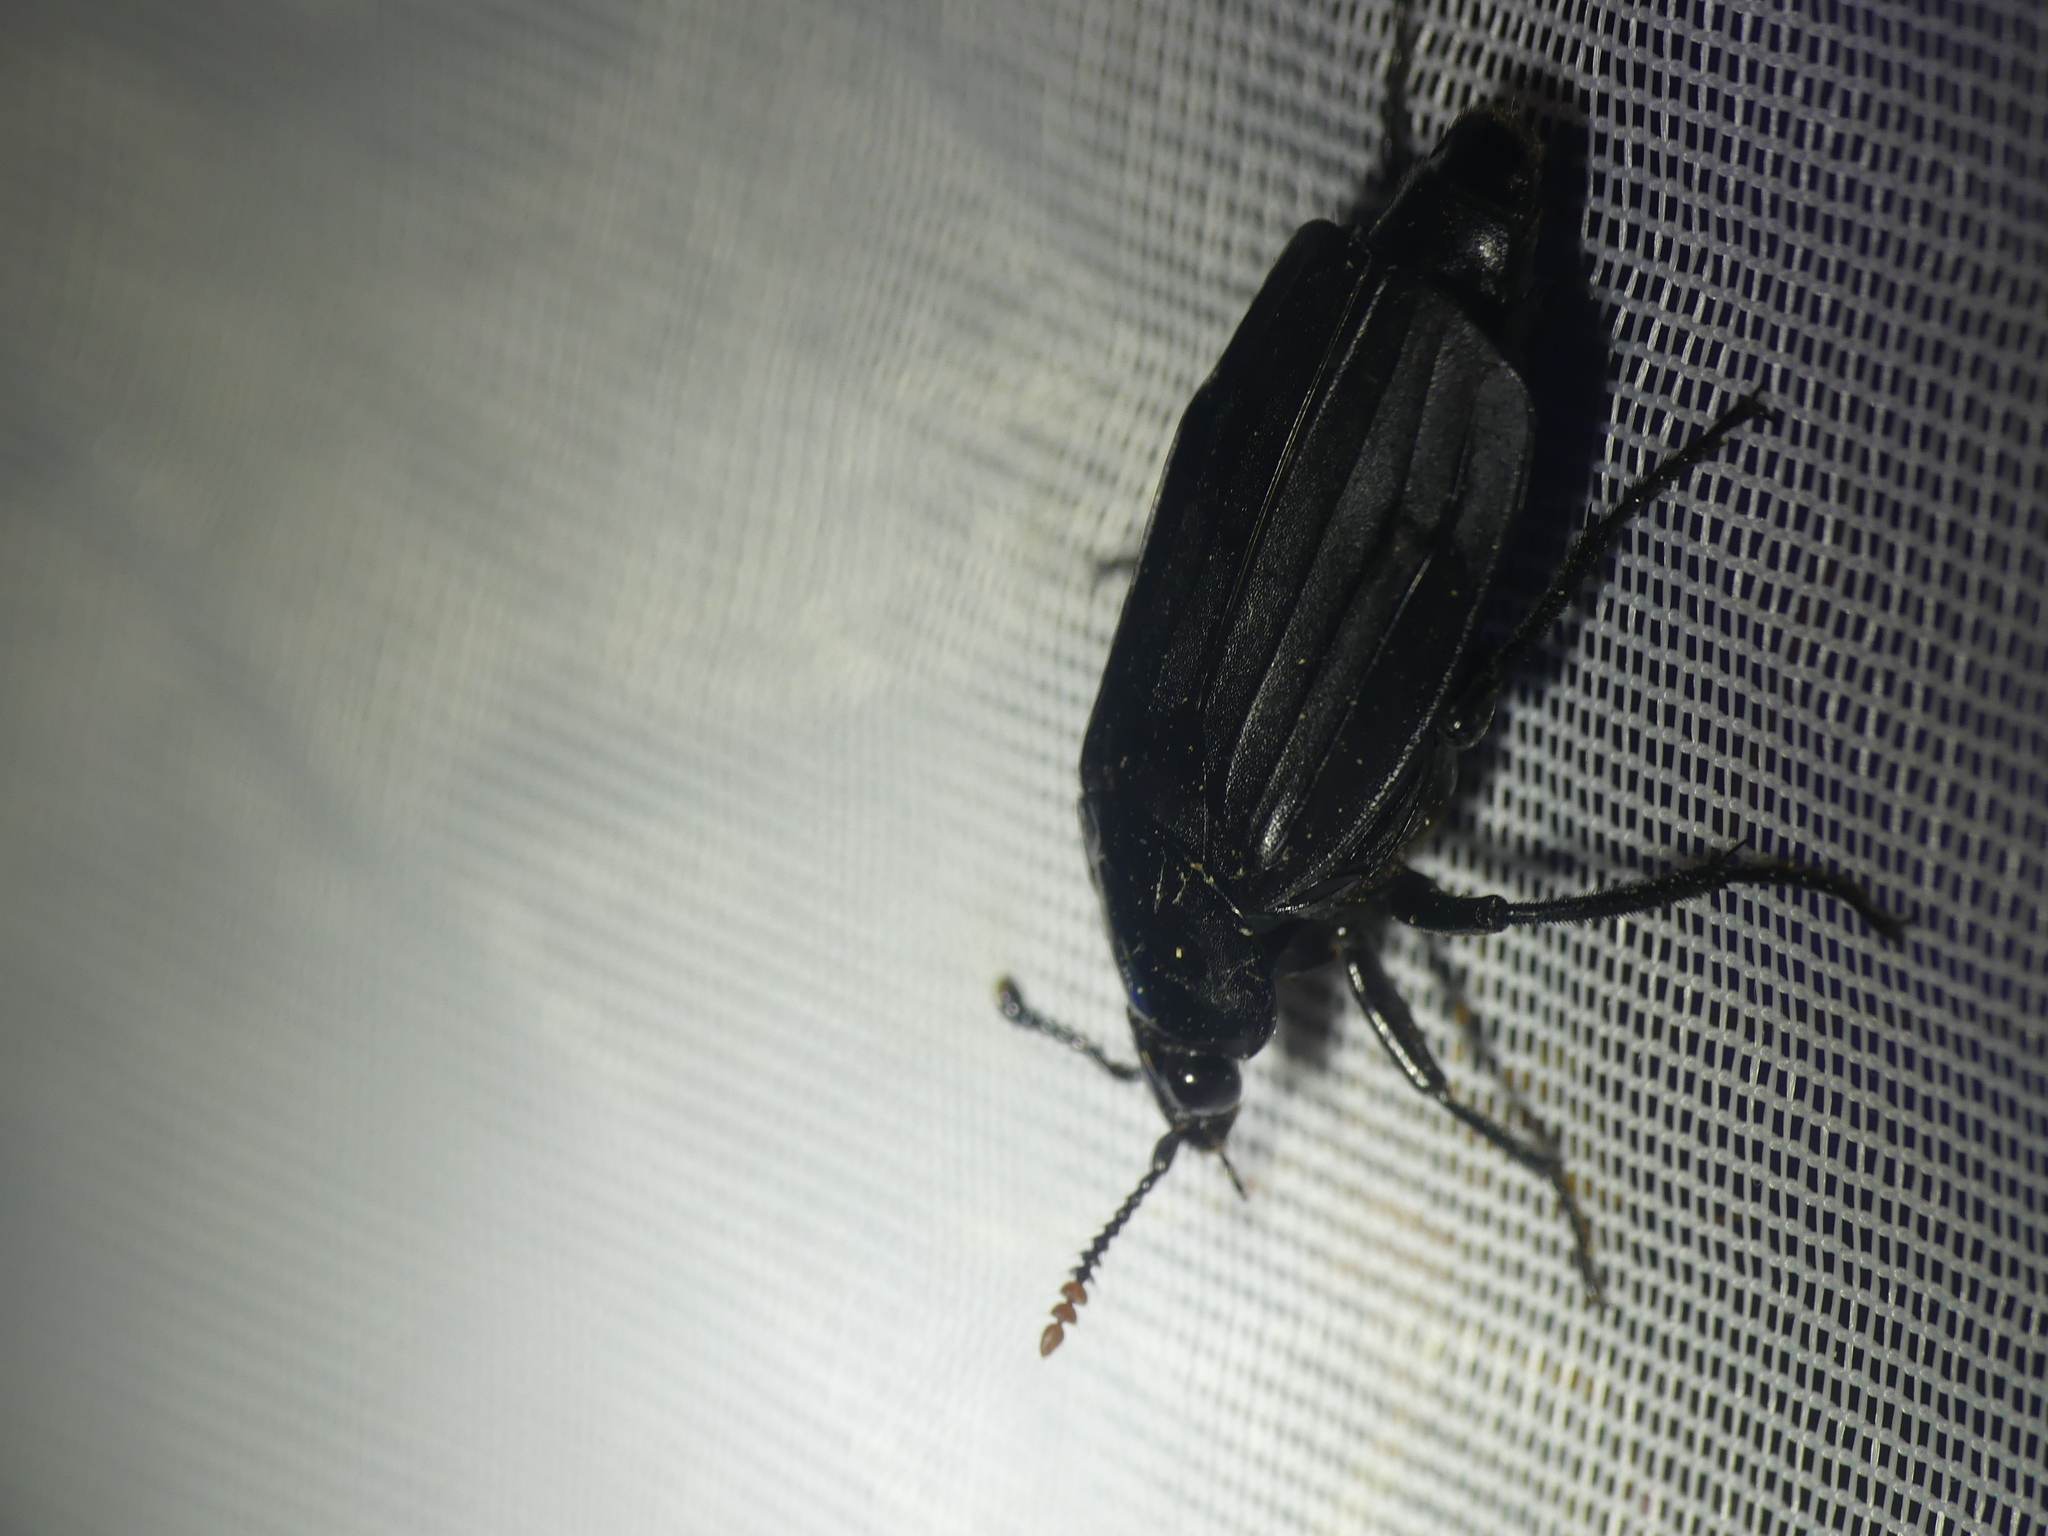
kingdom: Animalia
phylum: Arthropoda
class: Insecta
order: Coleoptera
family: Staphylinidae
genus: Necrodes
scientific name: Necrodes littoralis
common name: Shore sexton beetle
